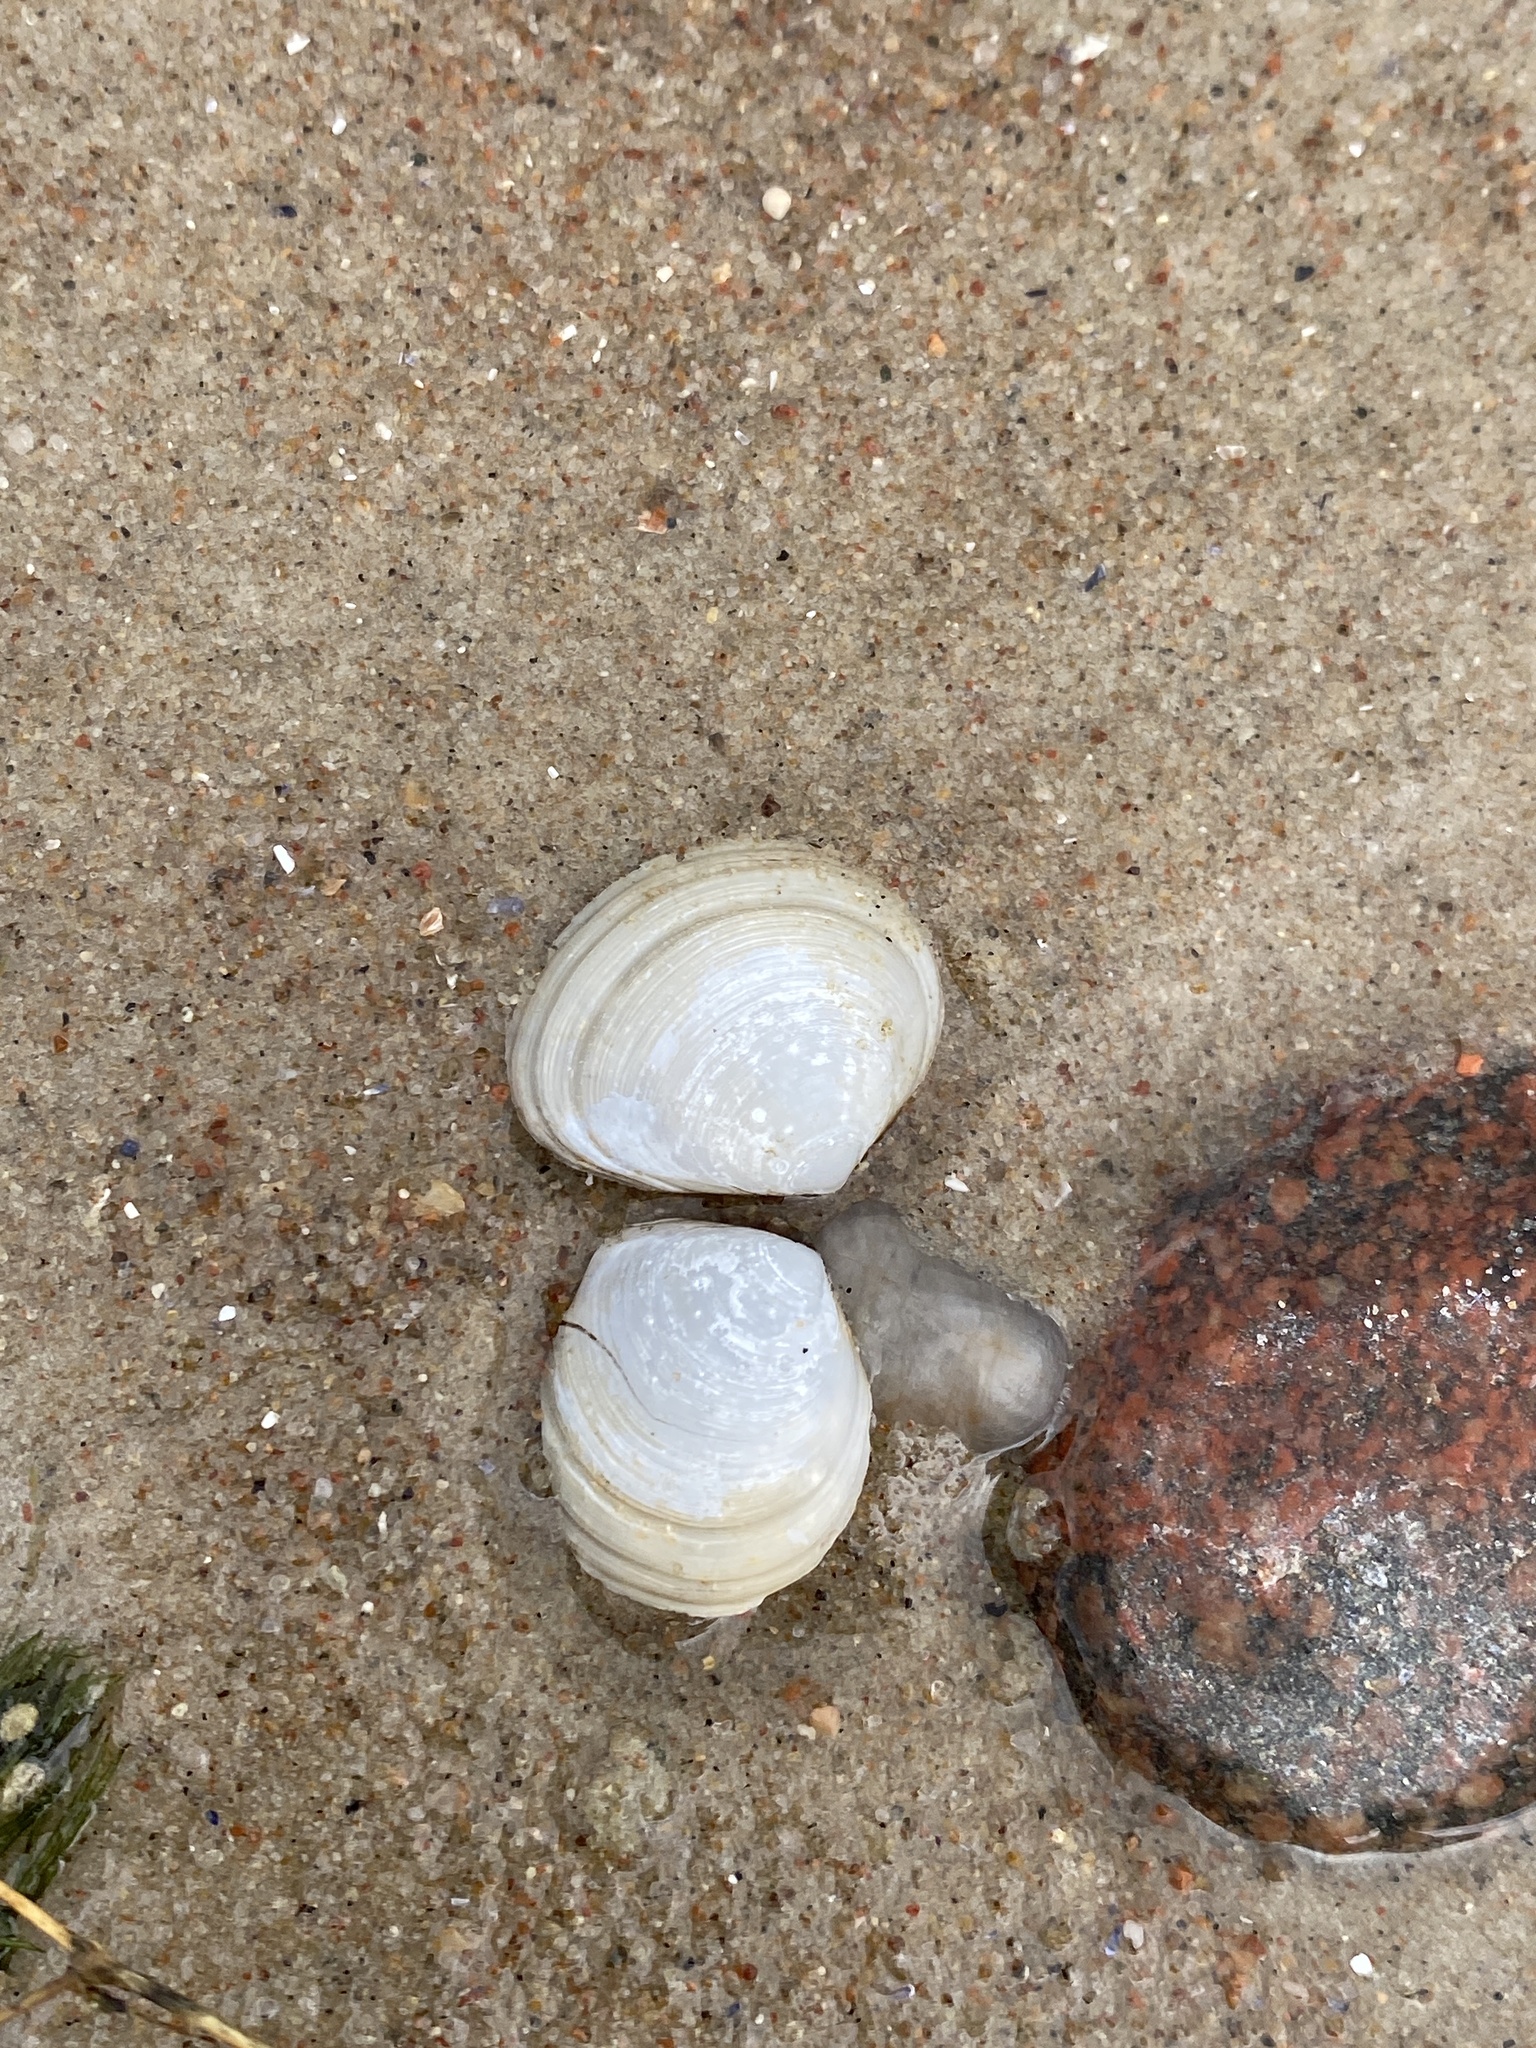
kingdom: Animalia
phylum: Mollusca
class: Bivalvia
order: Cardiida
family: Tellinidae
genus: Macoma
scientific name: Macoma balthica
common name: Baltic tellin
